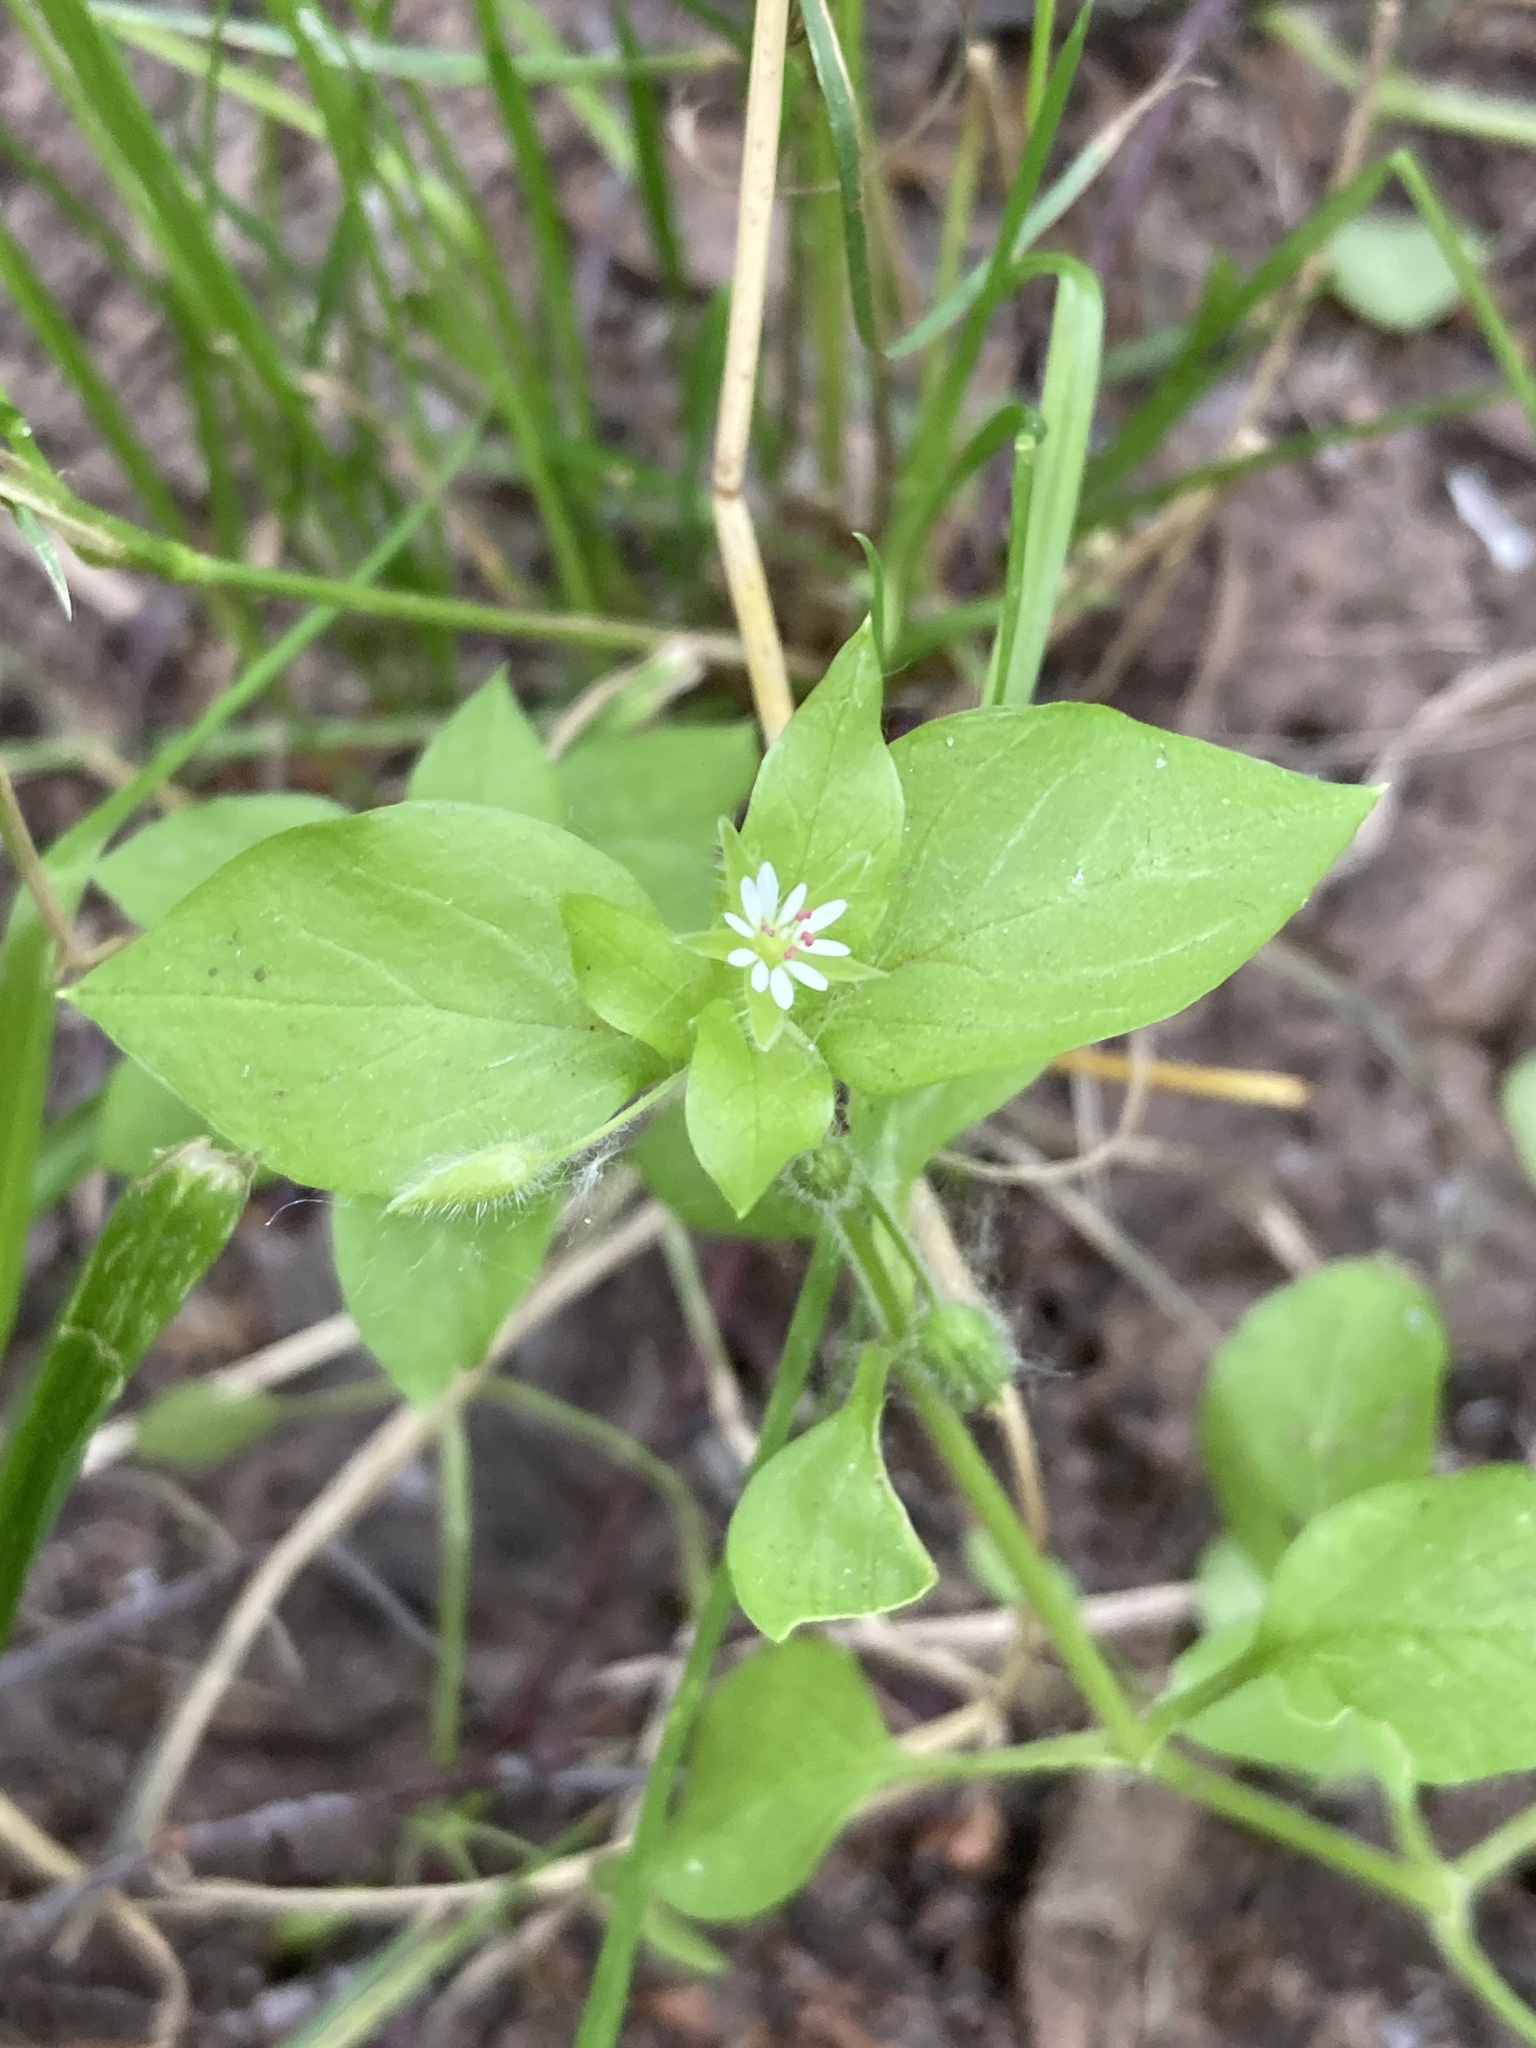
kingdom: Plantae
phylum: Tracheophyta
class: Magnoliopsida
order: Caryophyllales
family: Caryophyllaceae
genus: Stellaria
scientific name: Stellaria media
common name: Common chickweed
